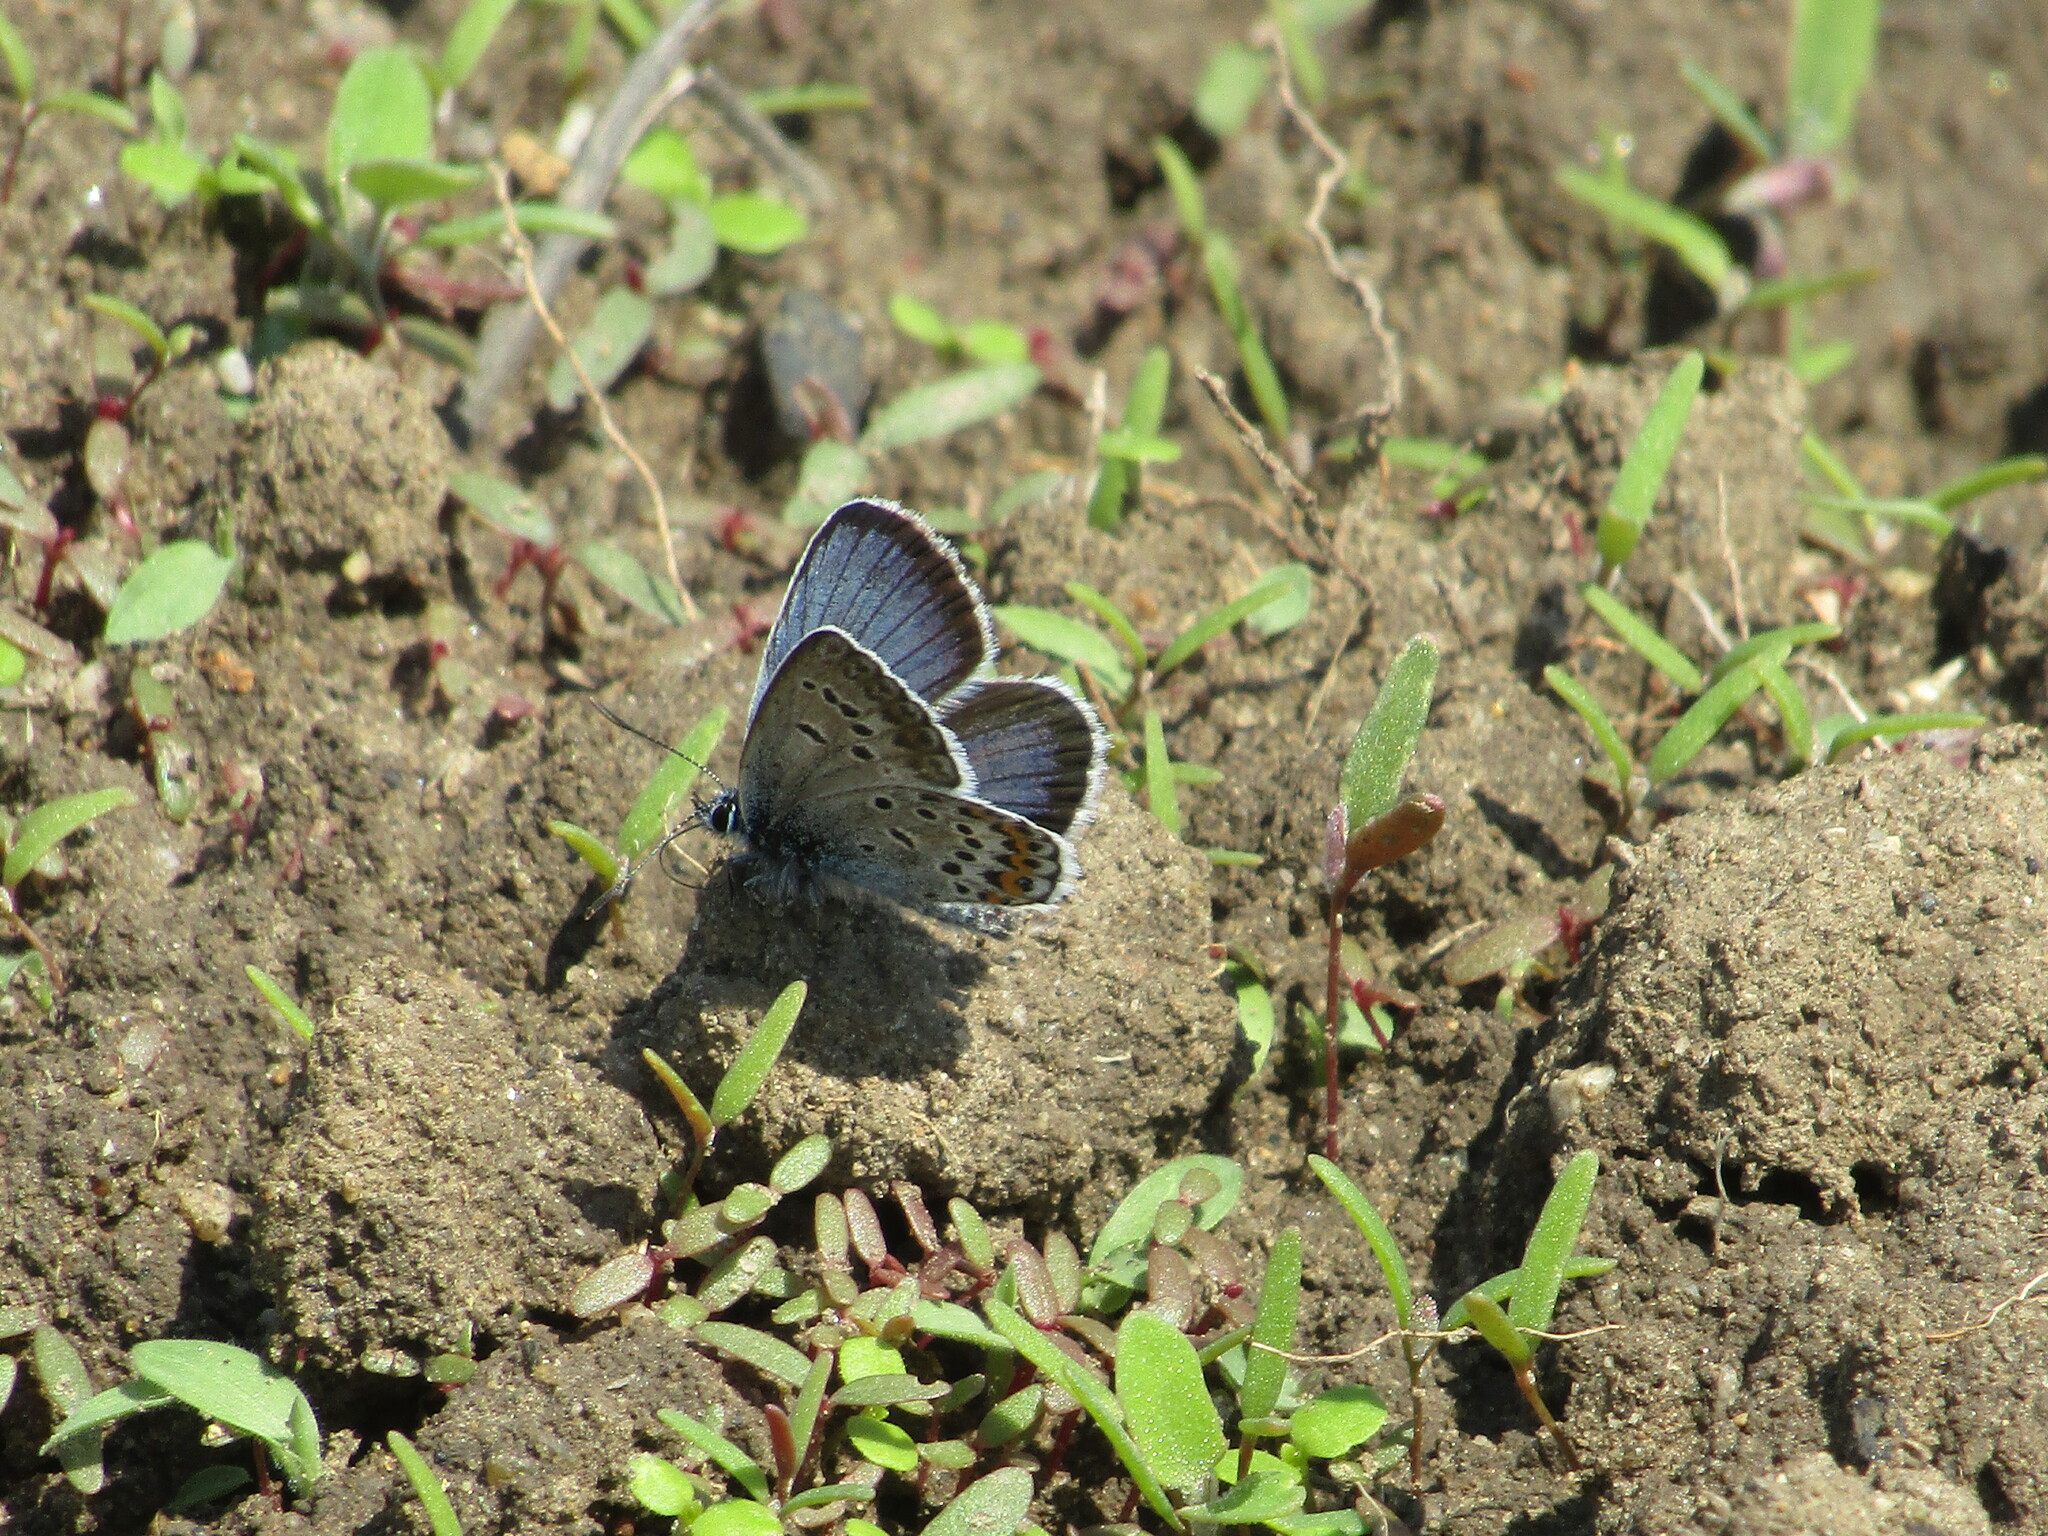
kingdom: Animalia
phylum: Arthropoda
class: Insecta
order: Lepidoptera
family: Lycaenidae
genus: Plebejus
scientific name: Plebejus argus
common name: Silver-studded blue
